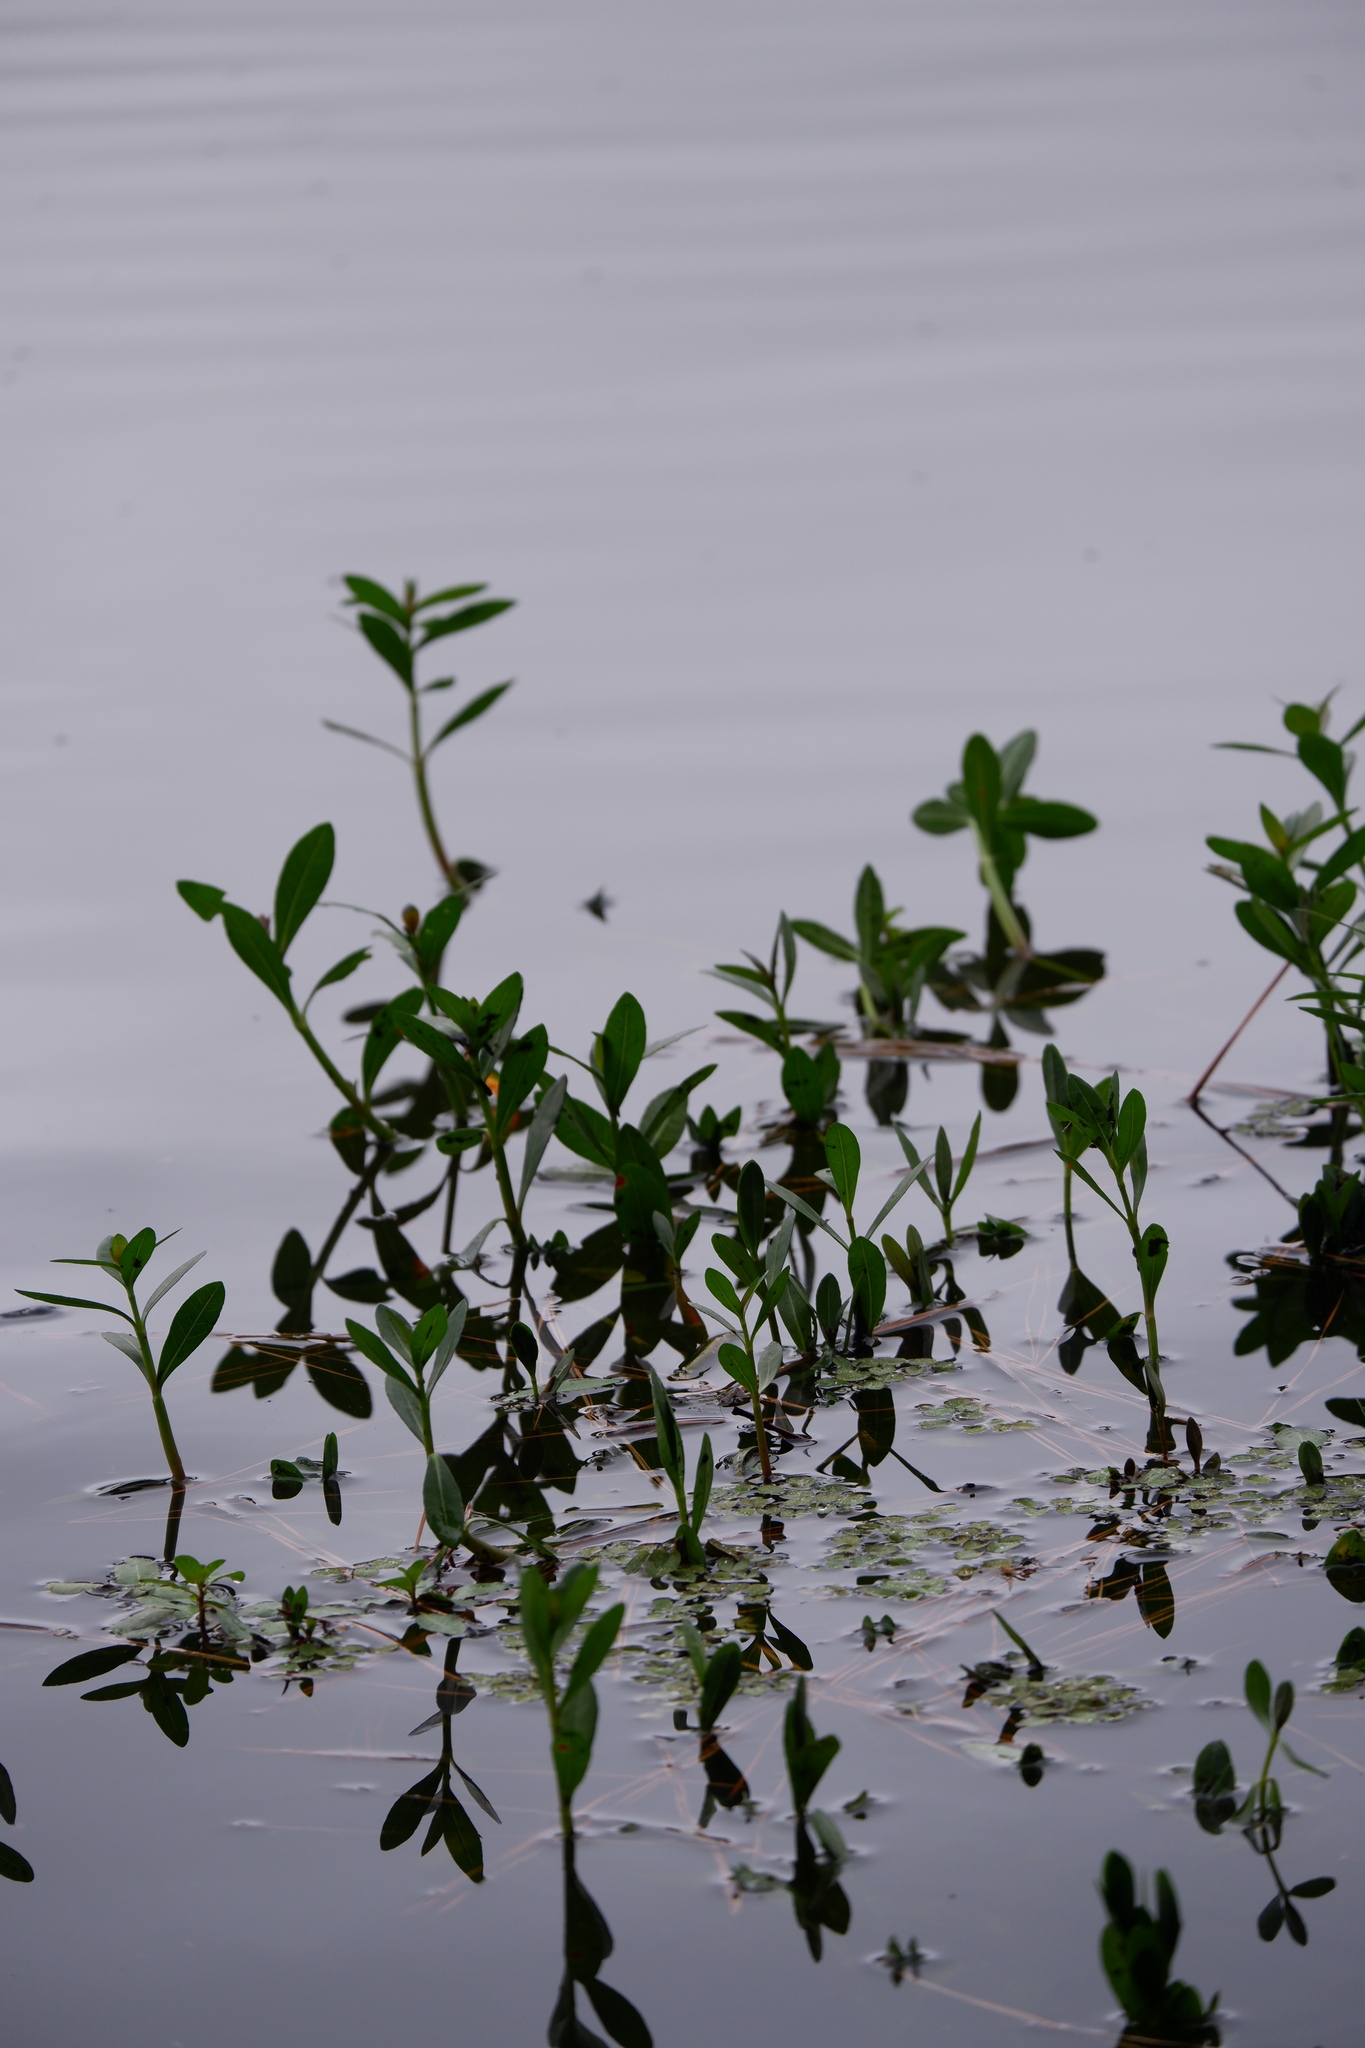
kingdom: Plantae
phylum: Tracheophyta
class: Magnoliopsida
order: Caryophyllales
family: Amaranthaceae
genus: Alternanthera
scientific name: Alternanthera philoxeroides
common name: Alligatorweed
